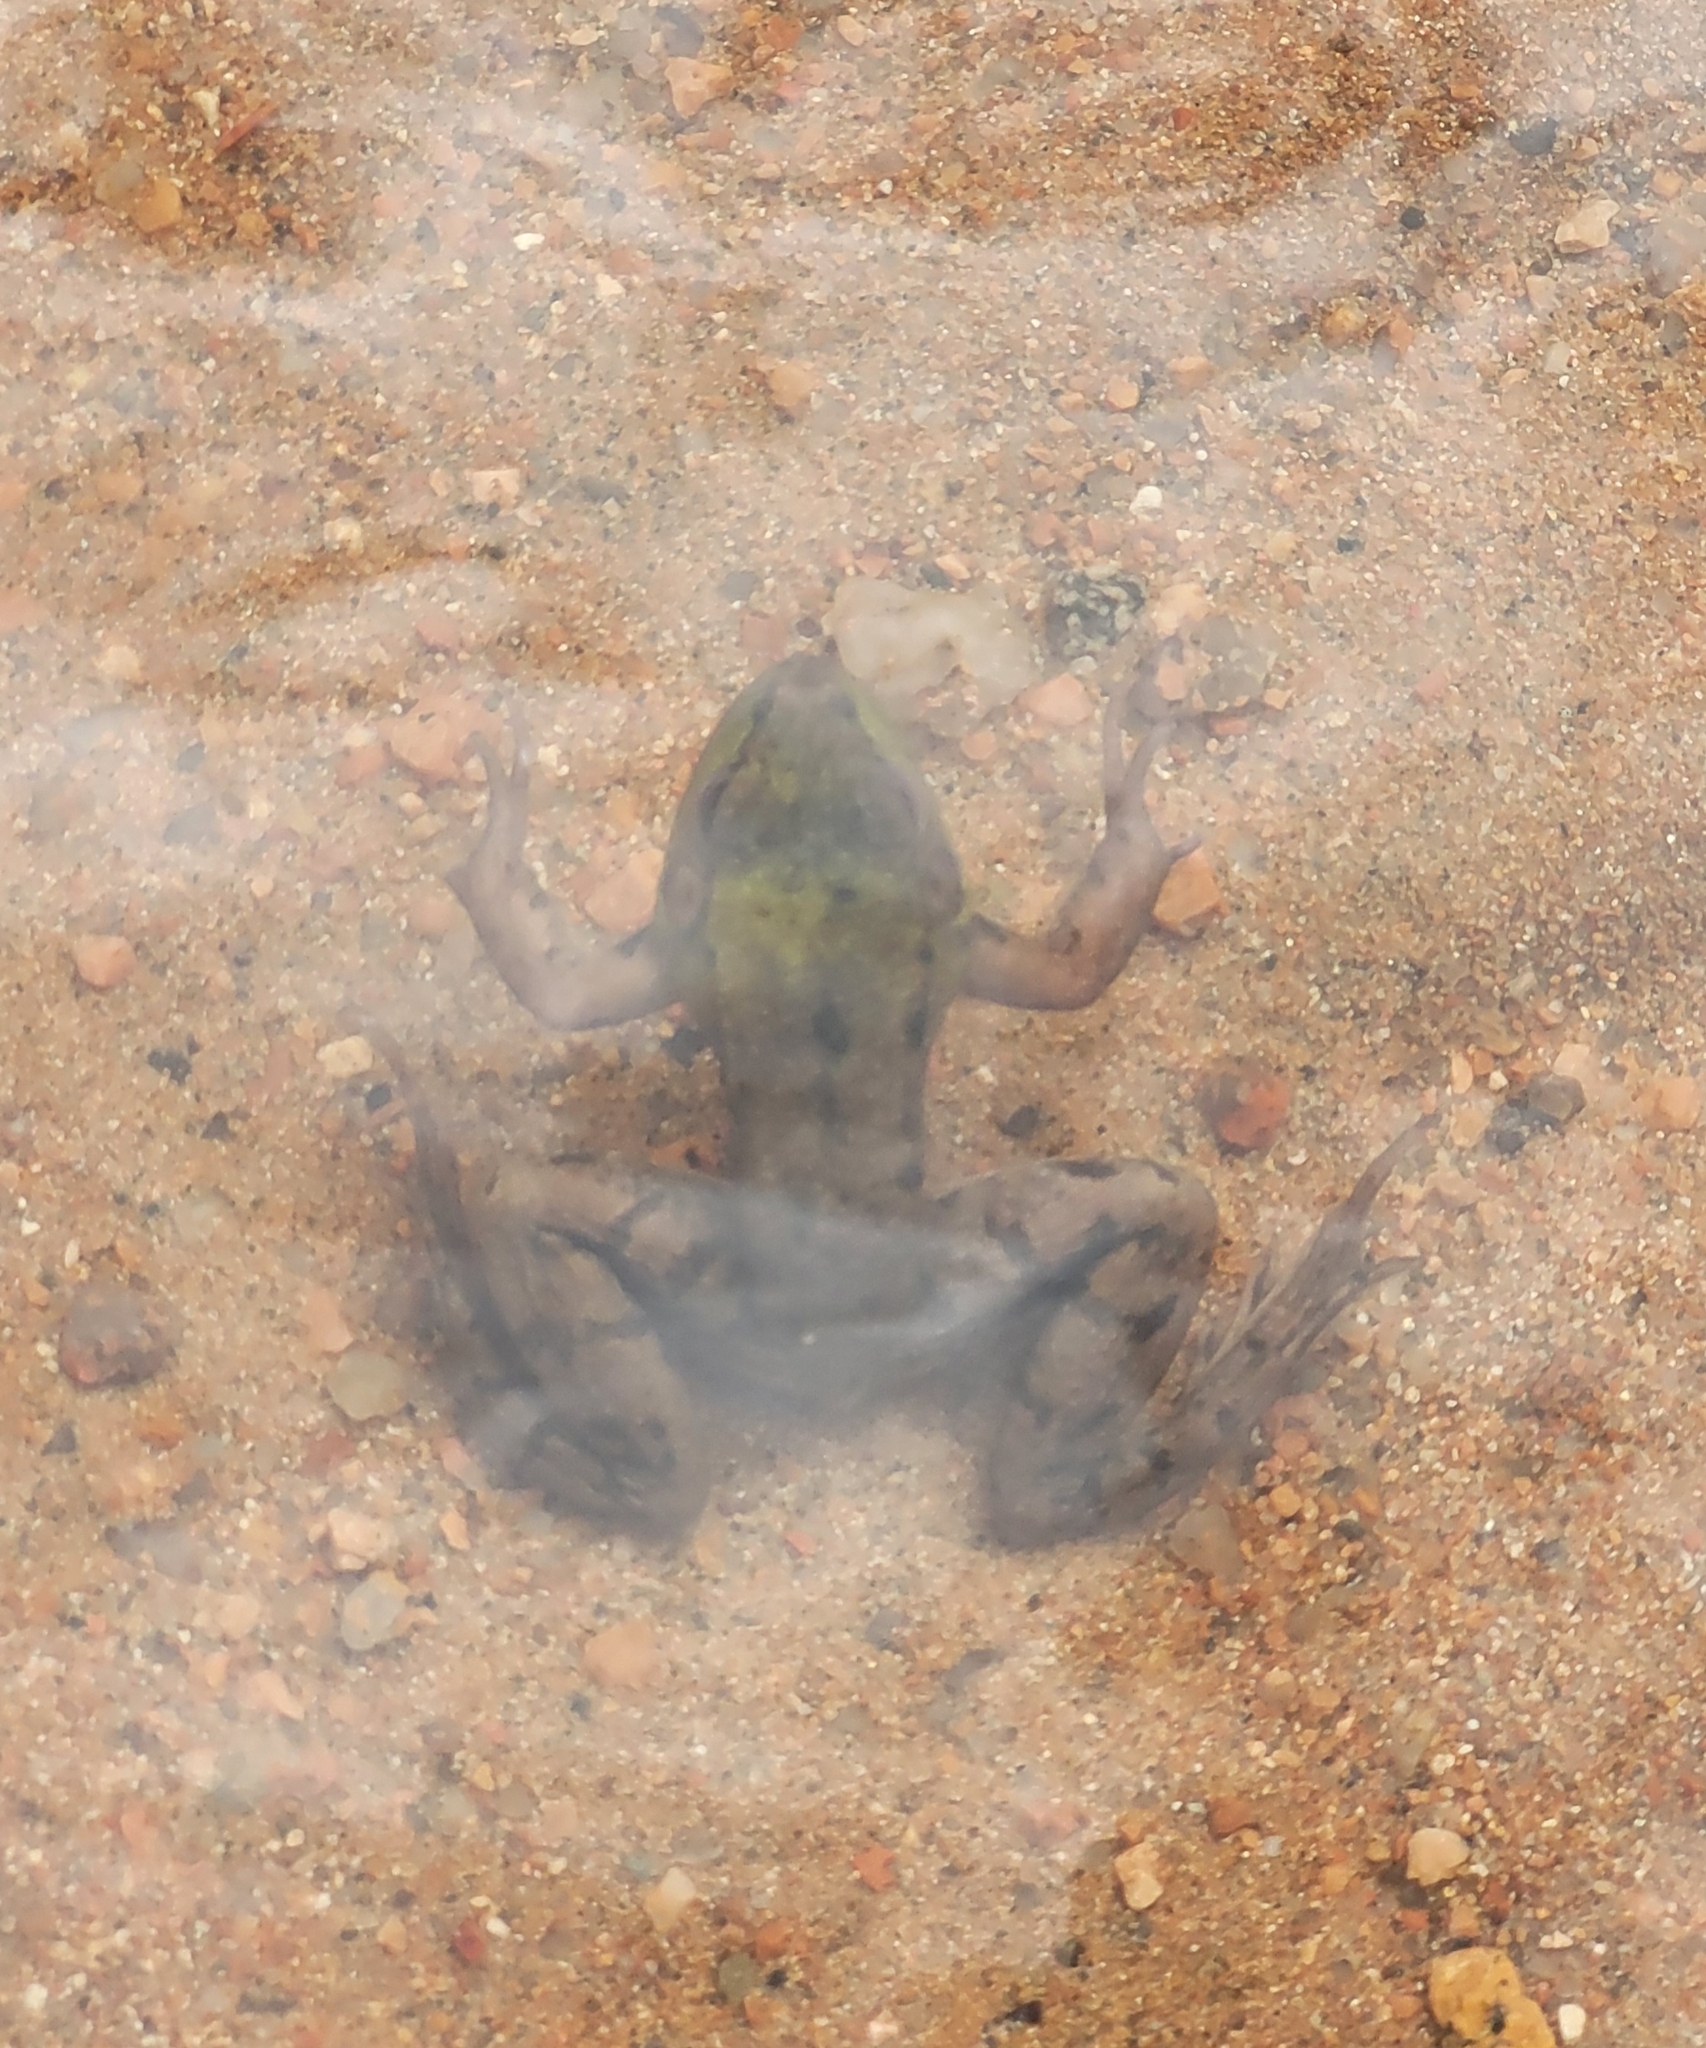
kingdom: Animalia
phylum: Chordata
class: Amphibia
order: Anura
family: Ranidae
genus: Lithobates
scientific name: Lithobates clamitans
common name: Green frog
